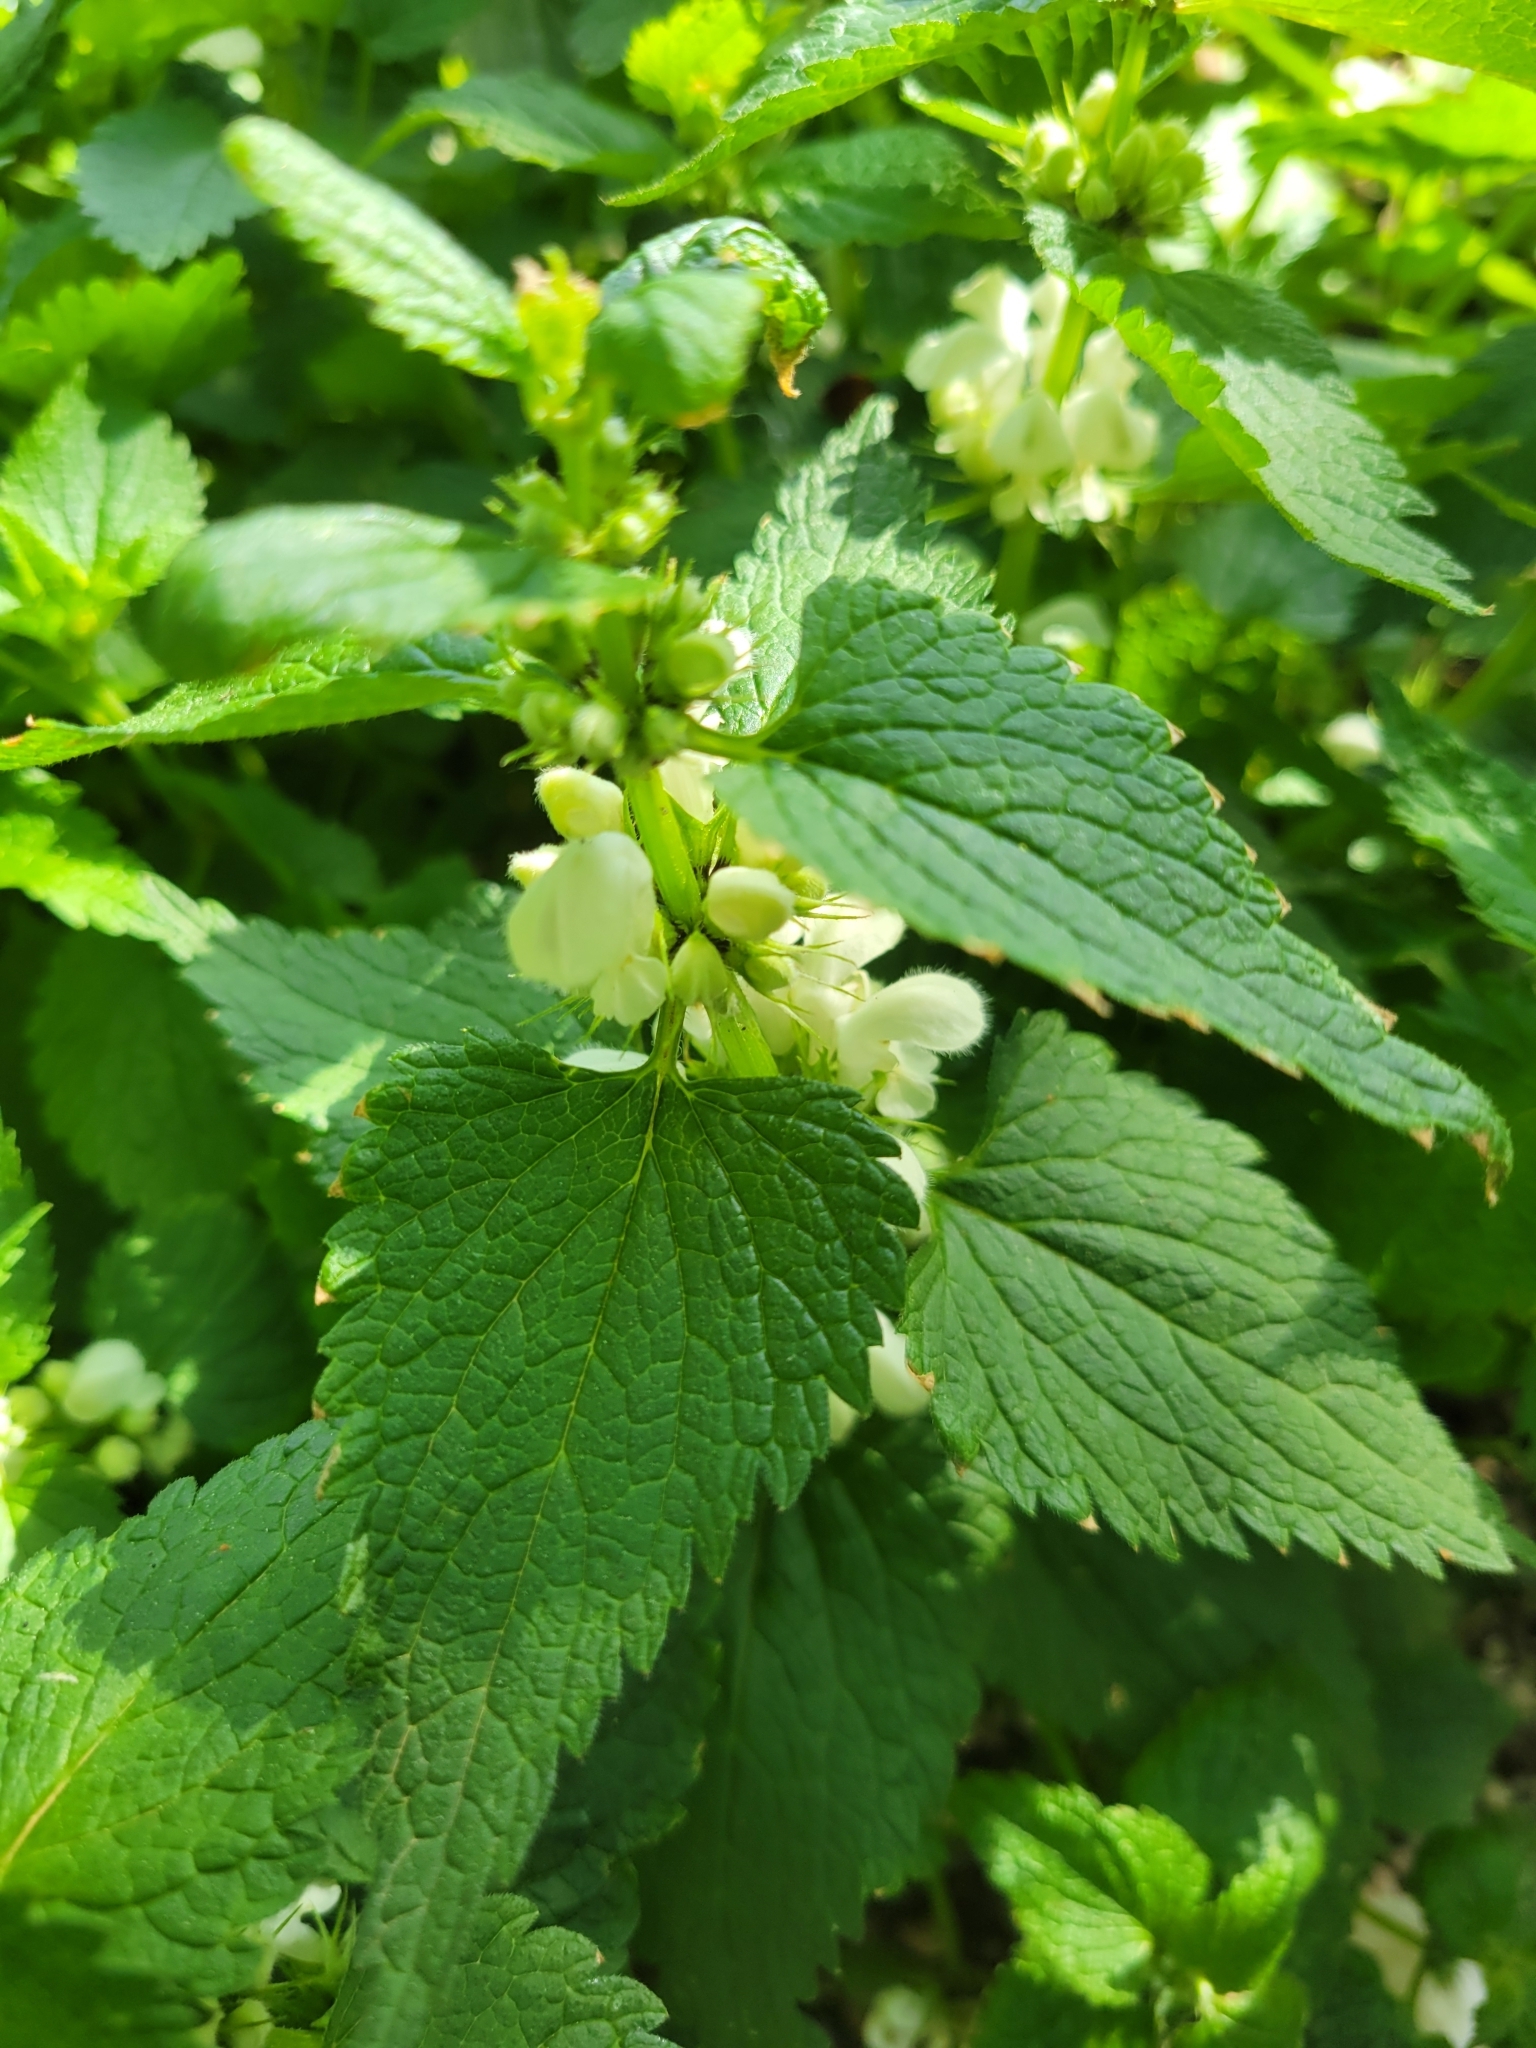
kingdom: Plantae
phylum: Tracheophyta
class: Magnoliopsida
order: Lamiales
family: Lamiaceae
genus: Lamium
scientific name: Lamium album
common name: White dead-nettle
